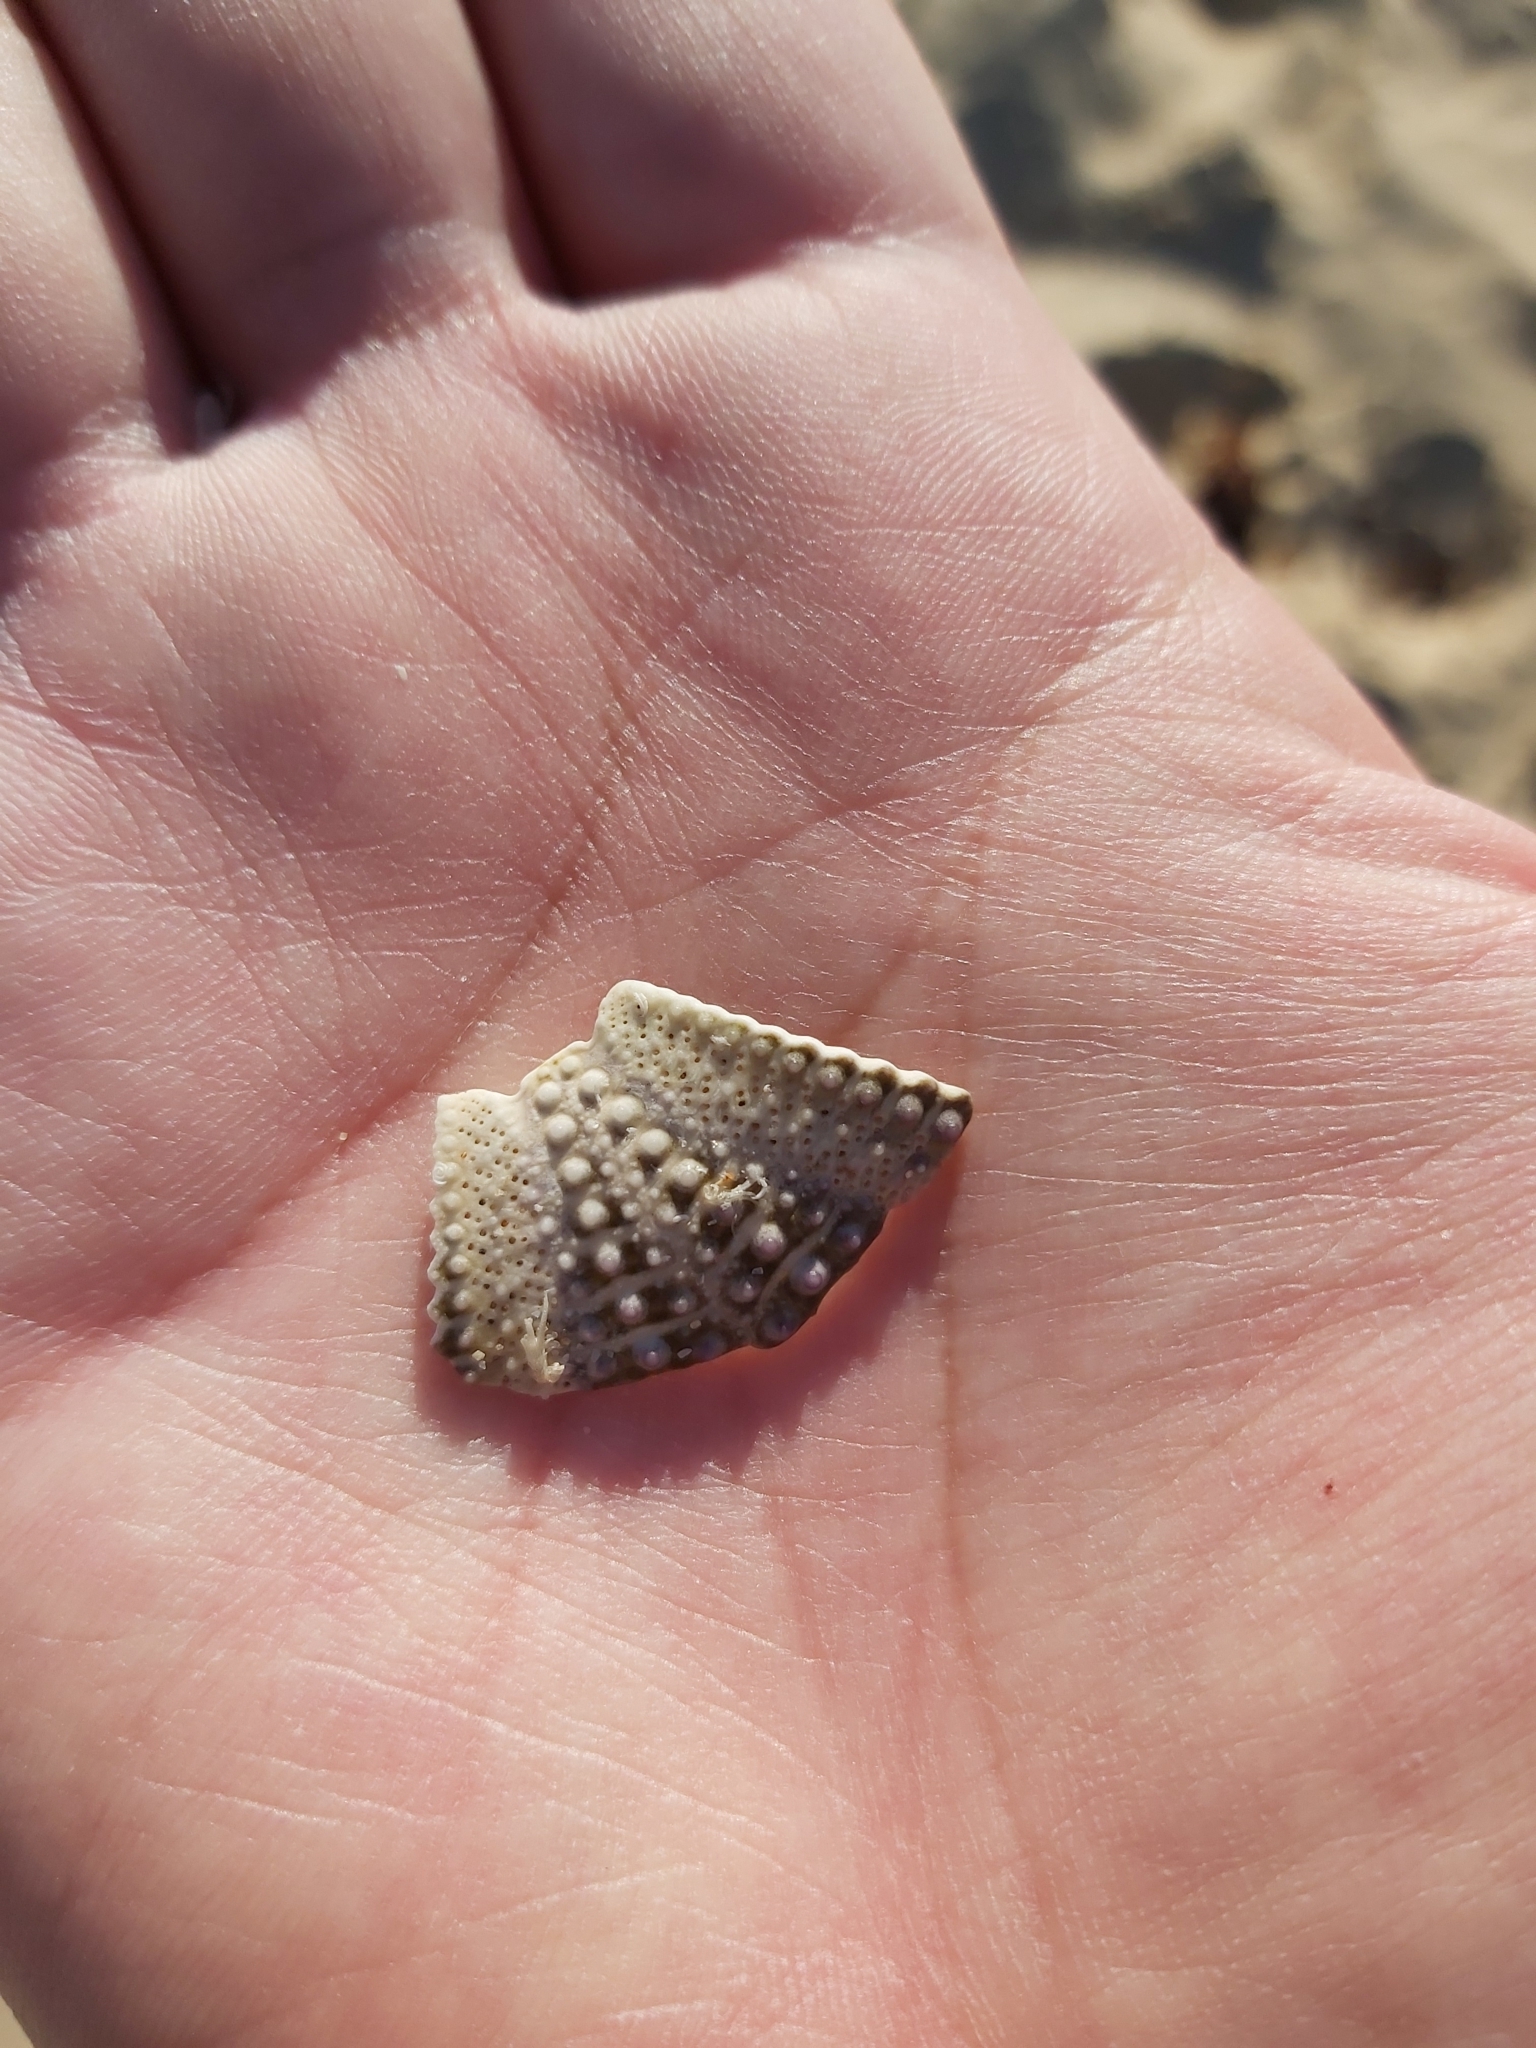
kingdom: Animalia
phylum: Echinodermata
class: Echinoidea
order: Camarodonta
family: Echinometridae
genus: Heliocidaris
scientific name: Heliocidaris erythrogramma
